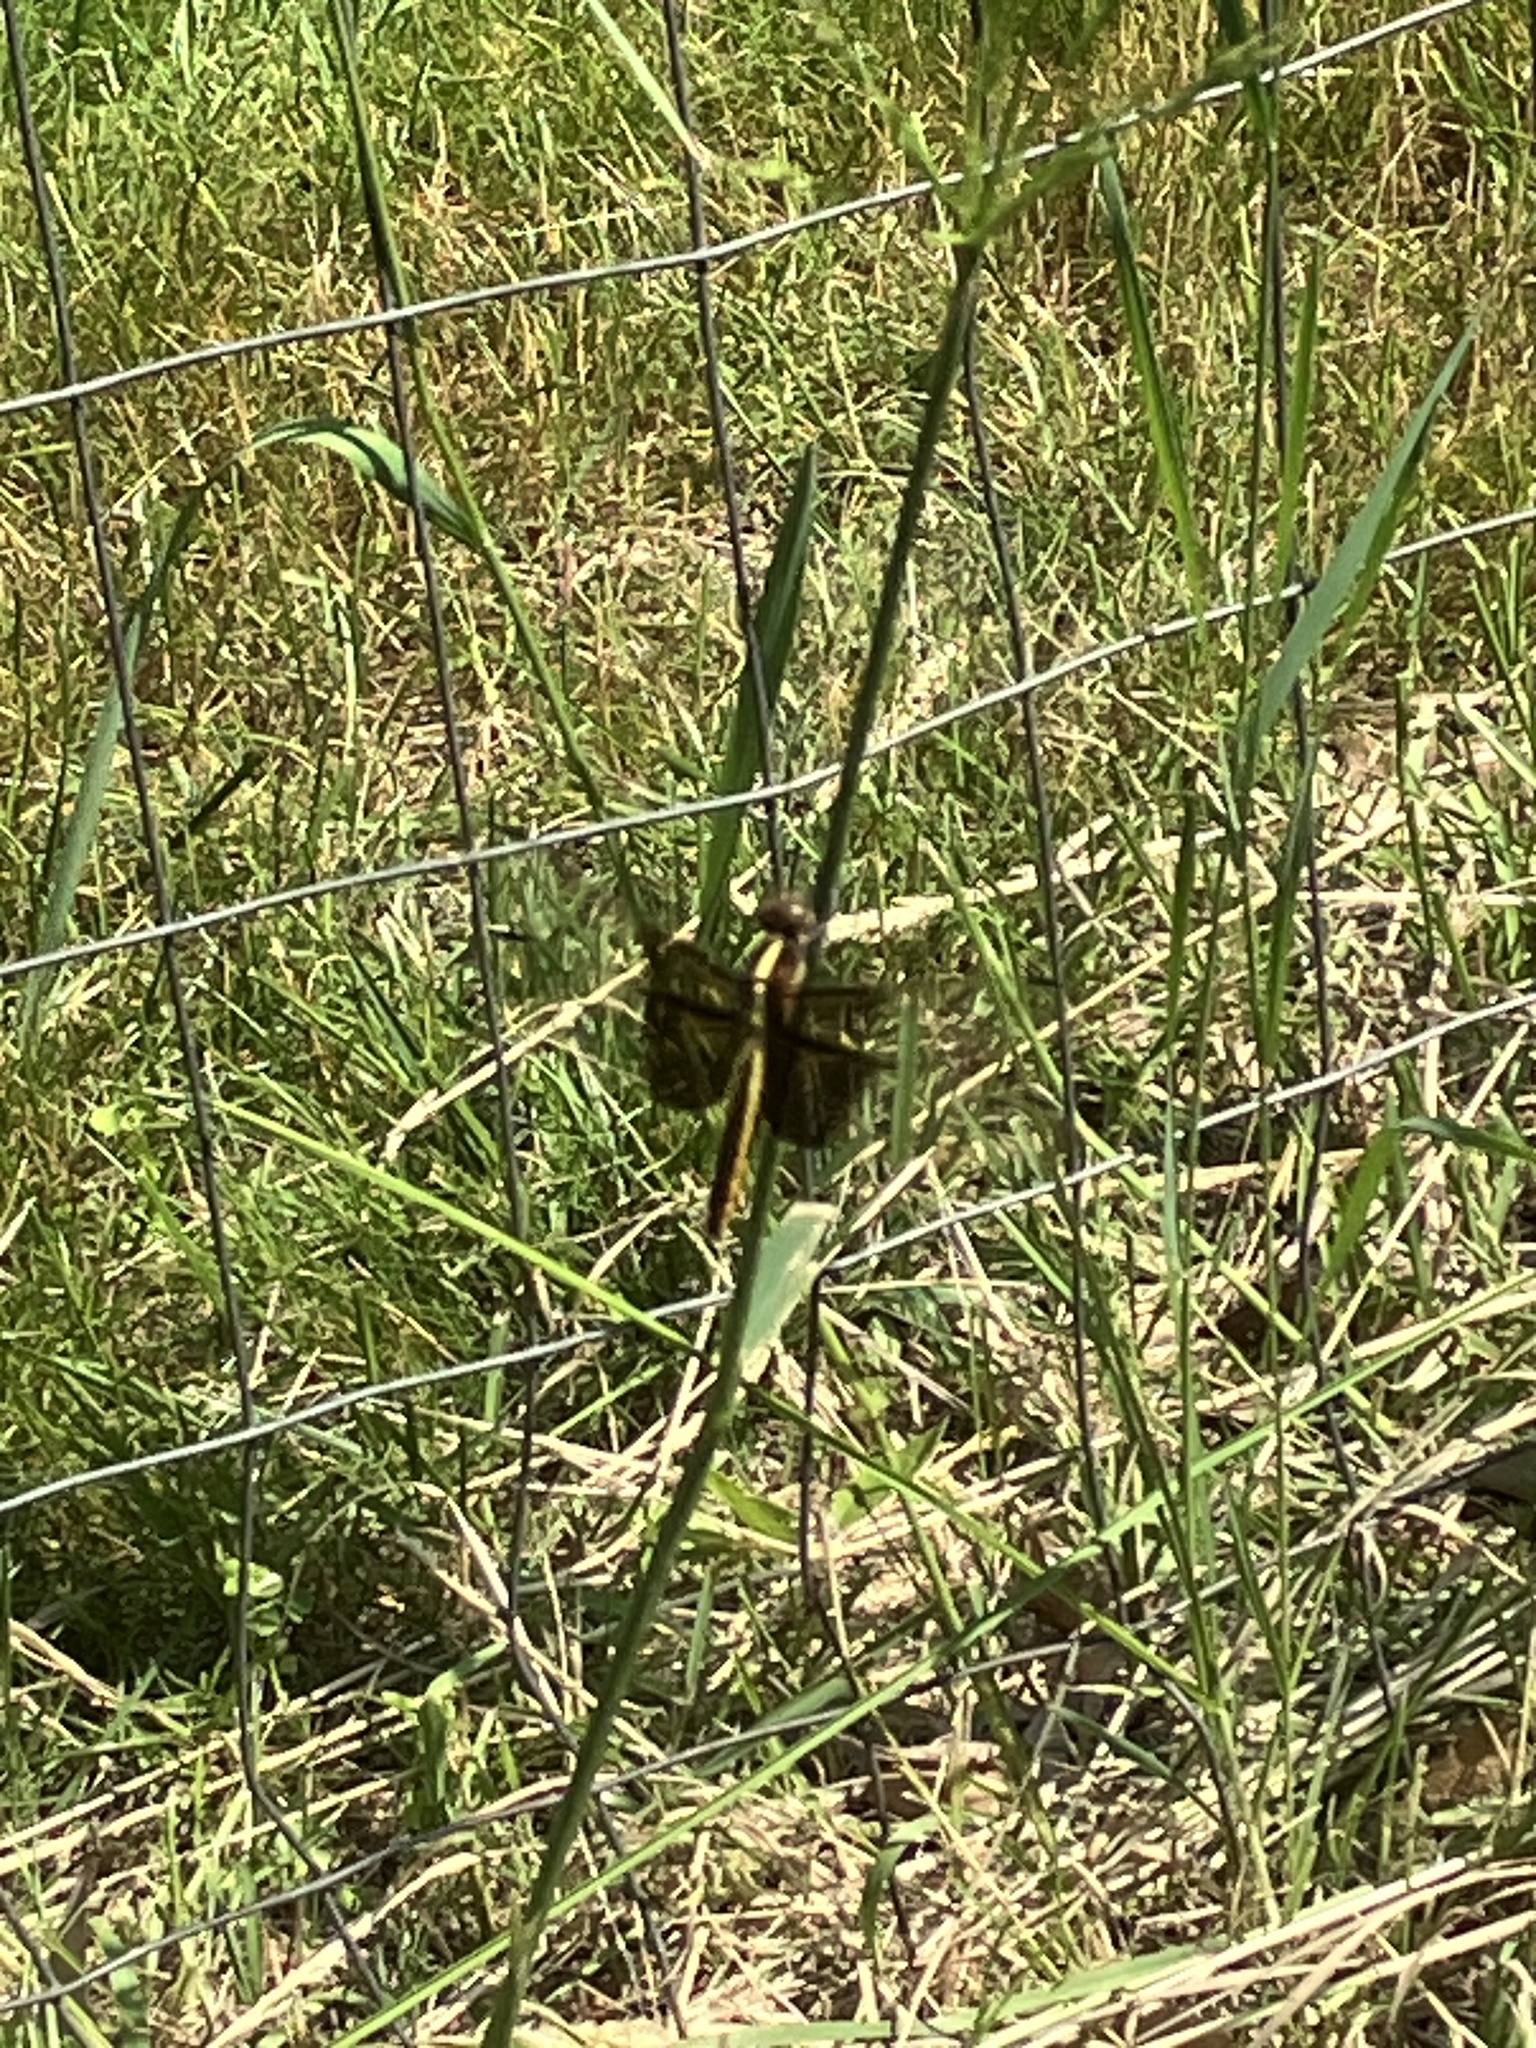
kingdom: Animalia
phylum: Arthropoda
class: Insecta
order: Odonata
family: Libellulidae
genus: Libellula
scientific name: Libellula luctuosa
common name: Widow skimmer
